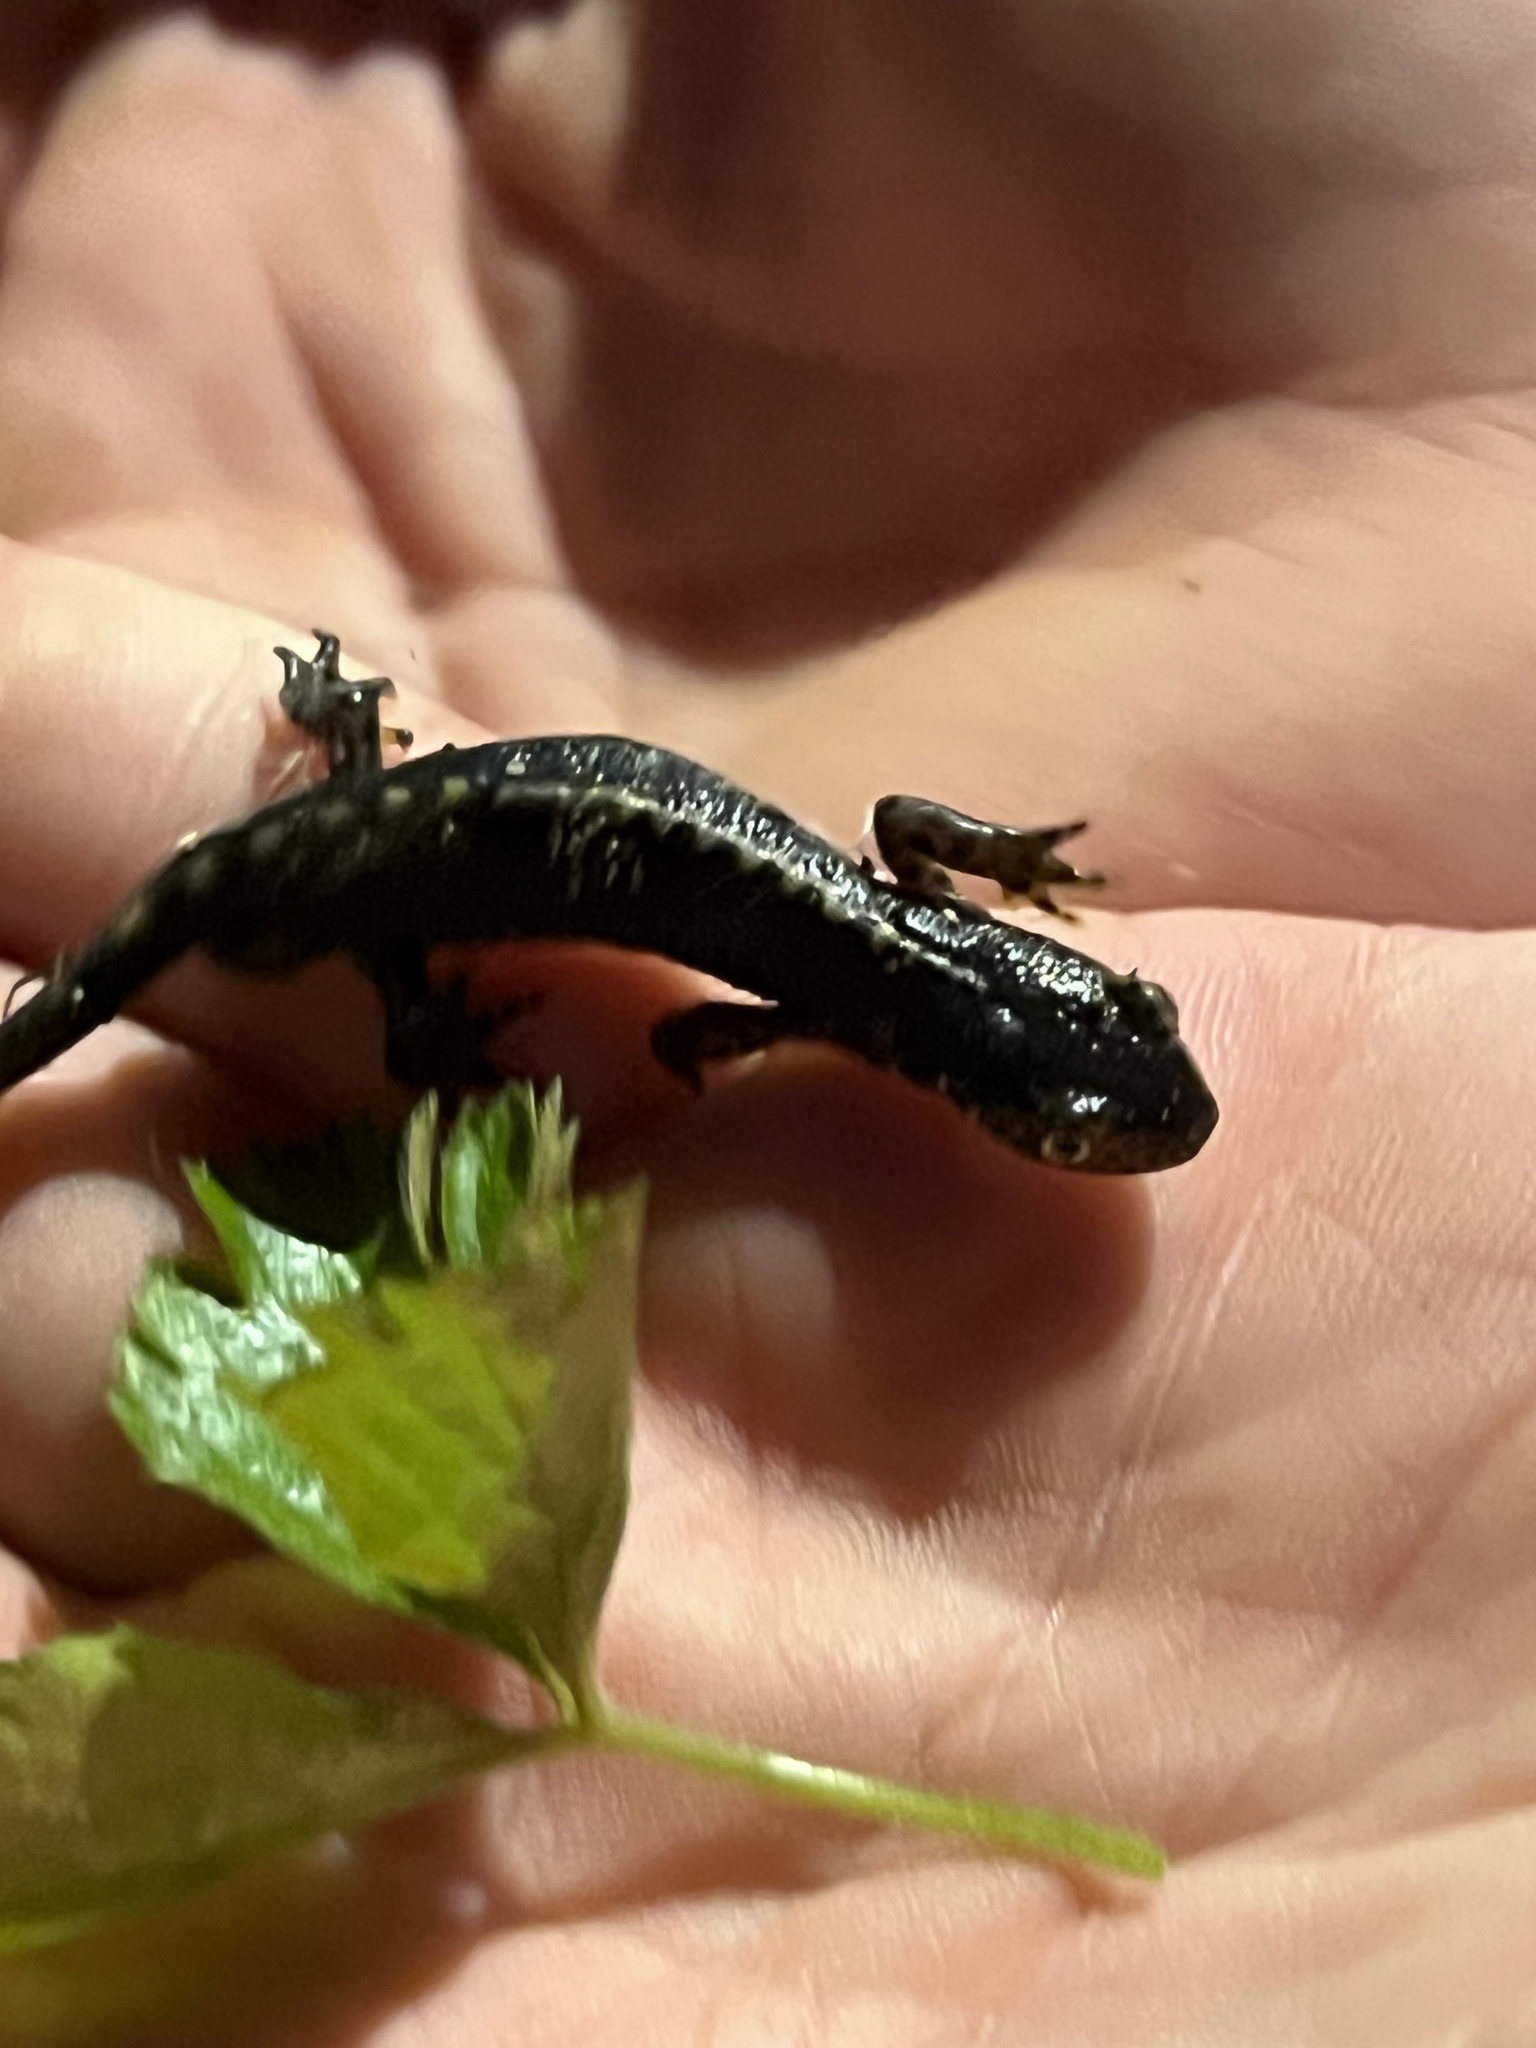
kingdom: Animalia
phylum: Chordata
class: Amphibia
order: Caudata
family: Salamandridae
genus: Ichthyosaura
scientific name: Ichthyosaura alpestris
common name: Alpine newt
